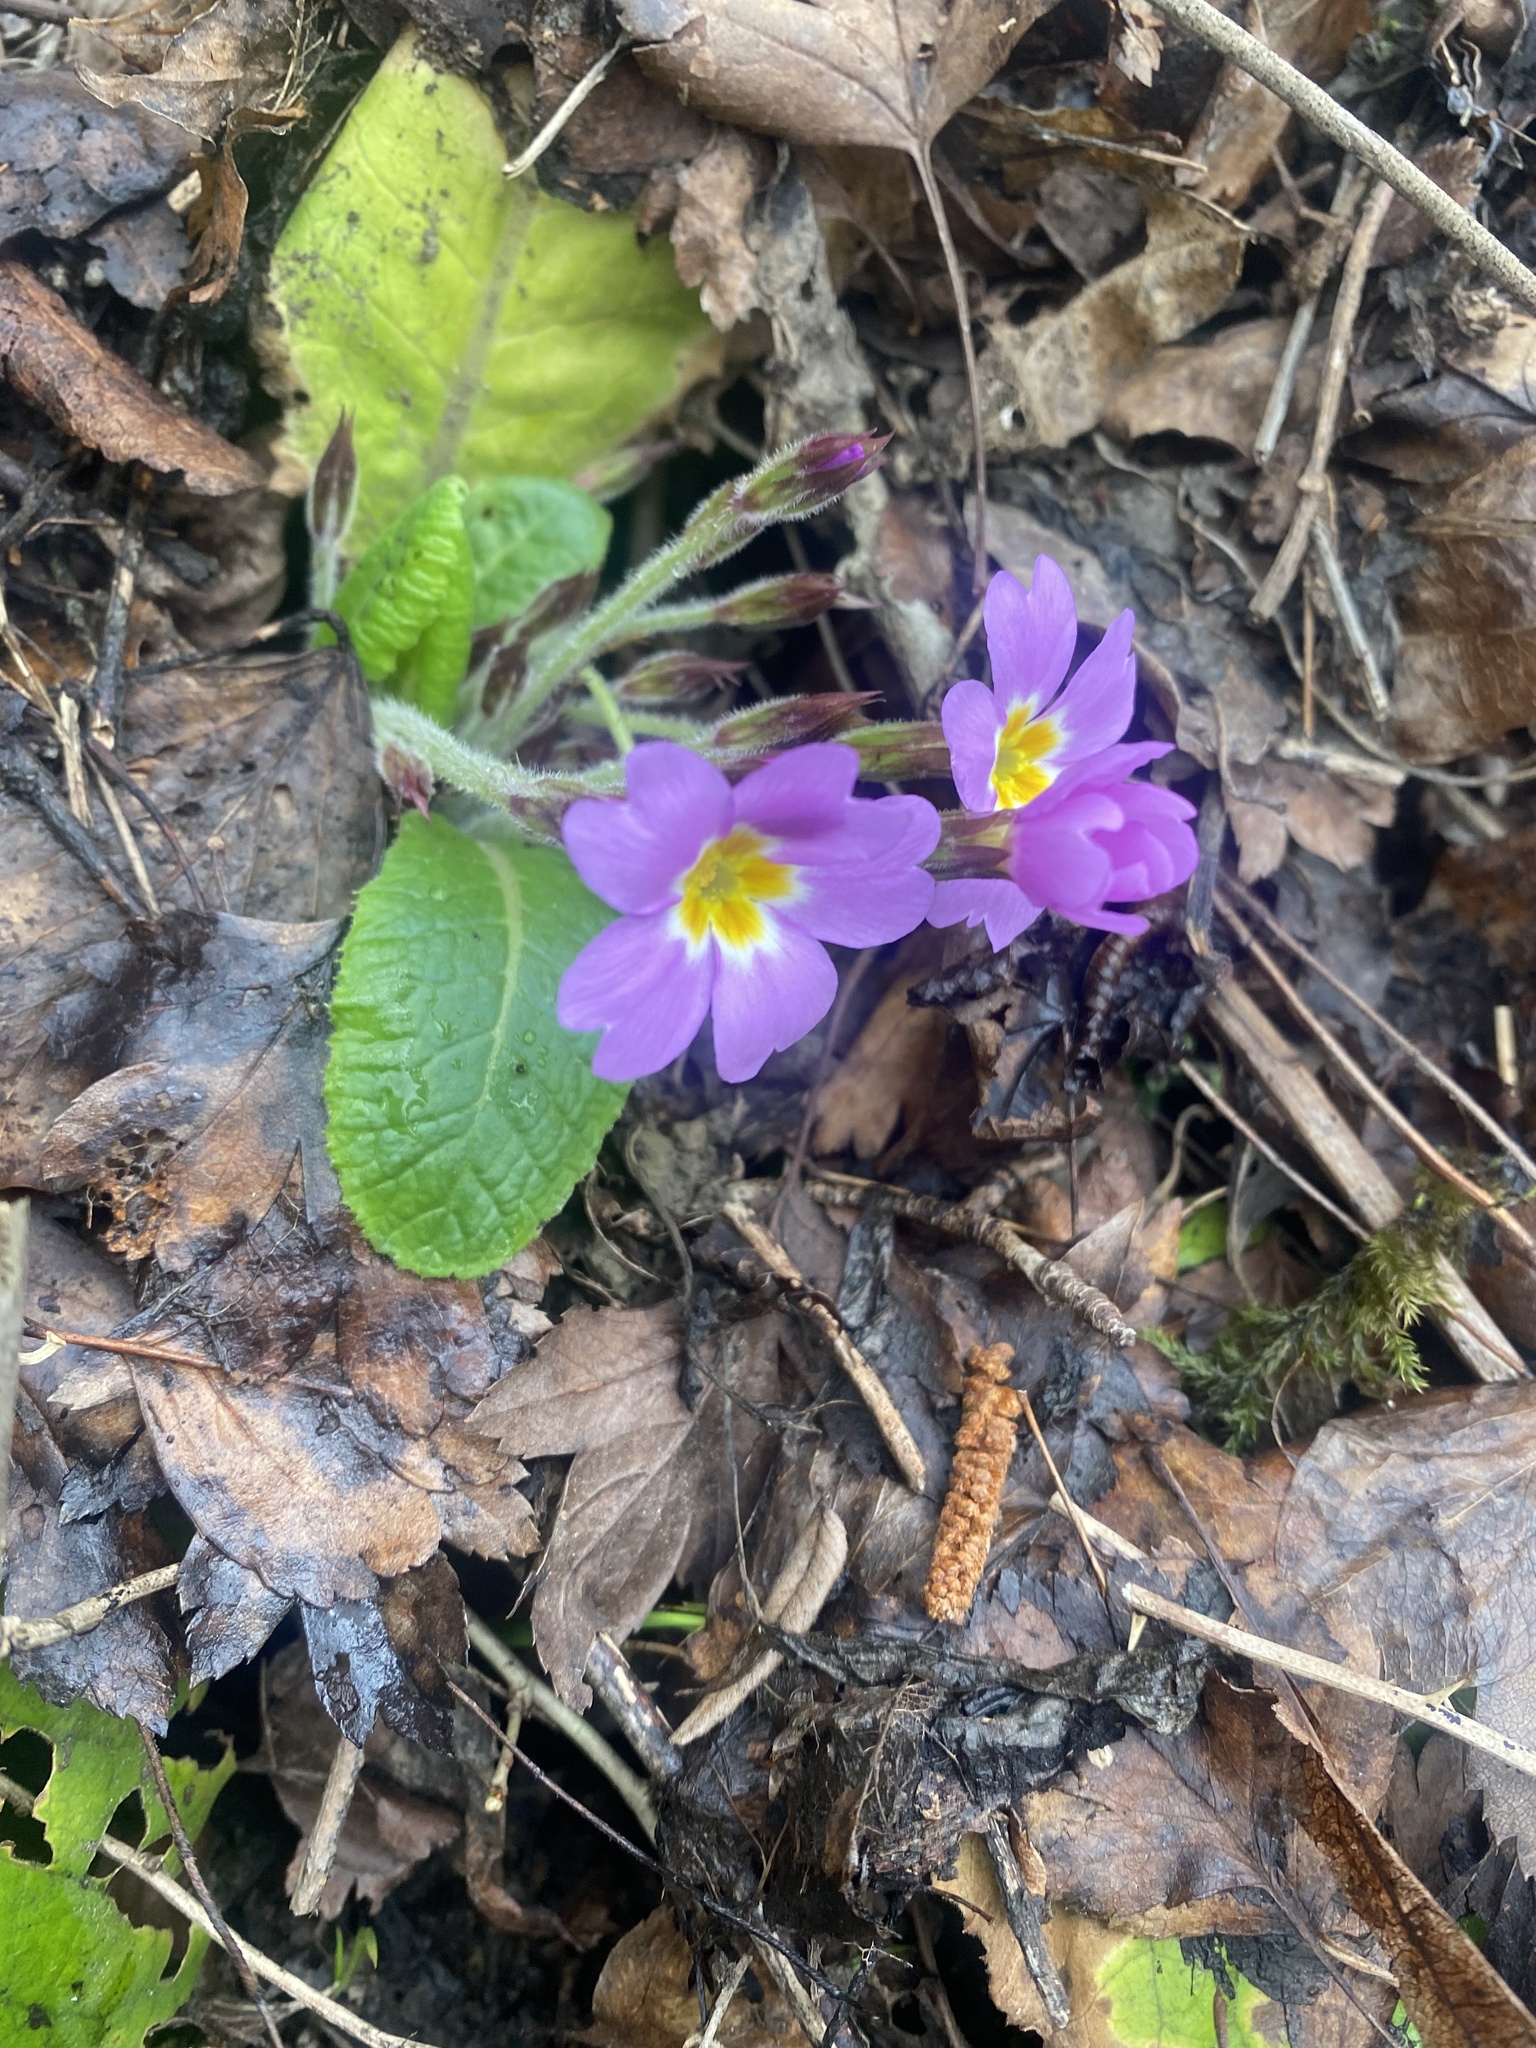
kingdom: Plantae
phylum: Tracheophyta
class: Magnoliopsida
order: Ericales
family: Primulaceae
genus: Primula
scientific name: Primula vulgaris
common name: Primrose
